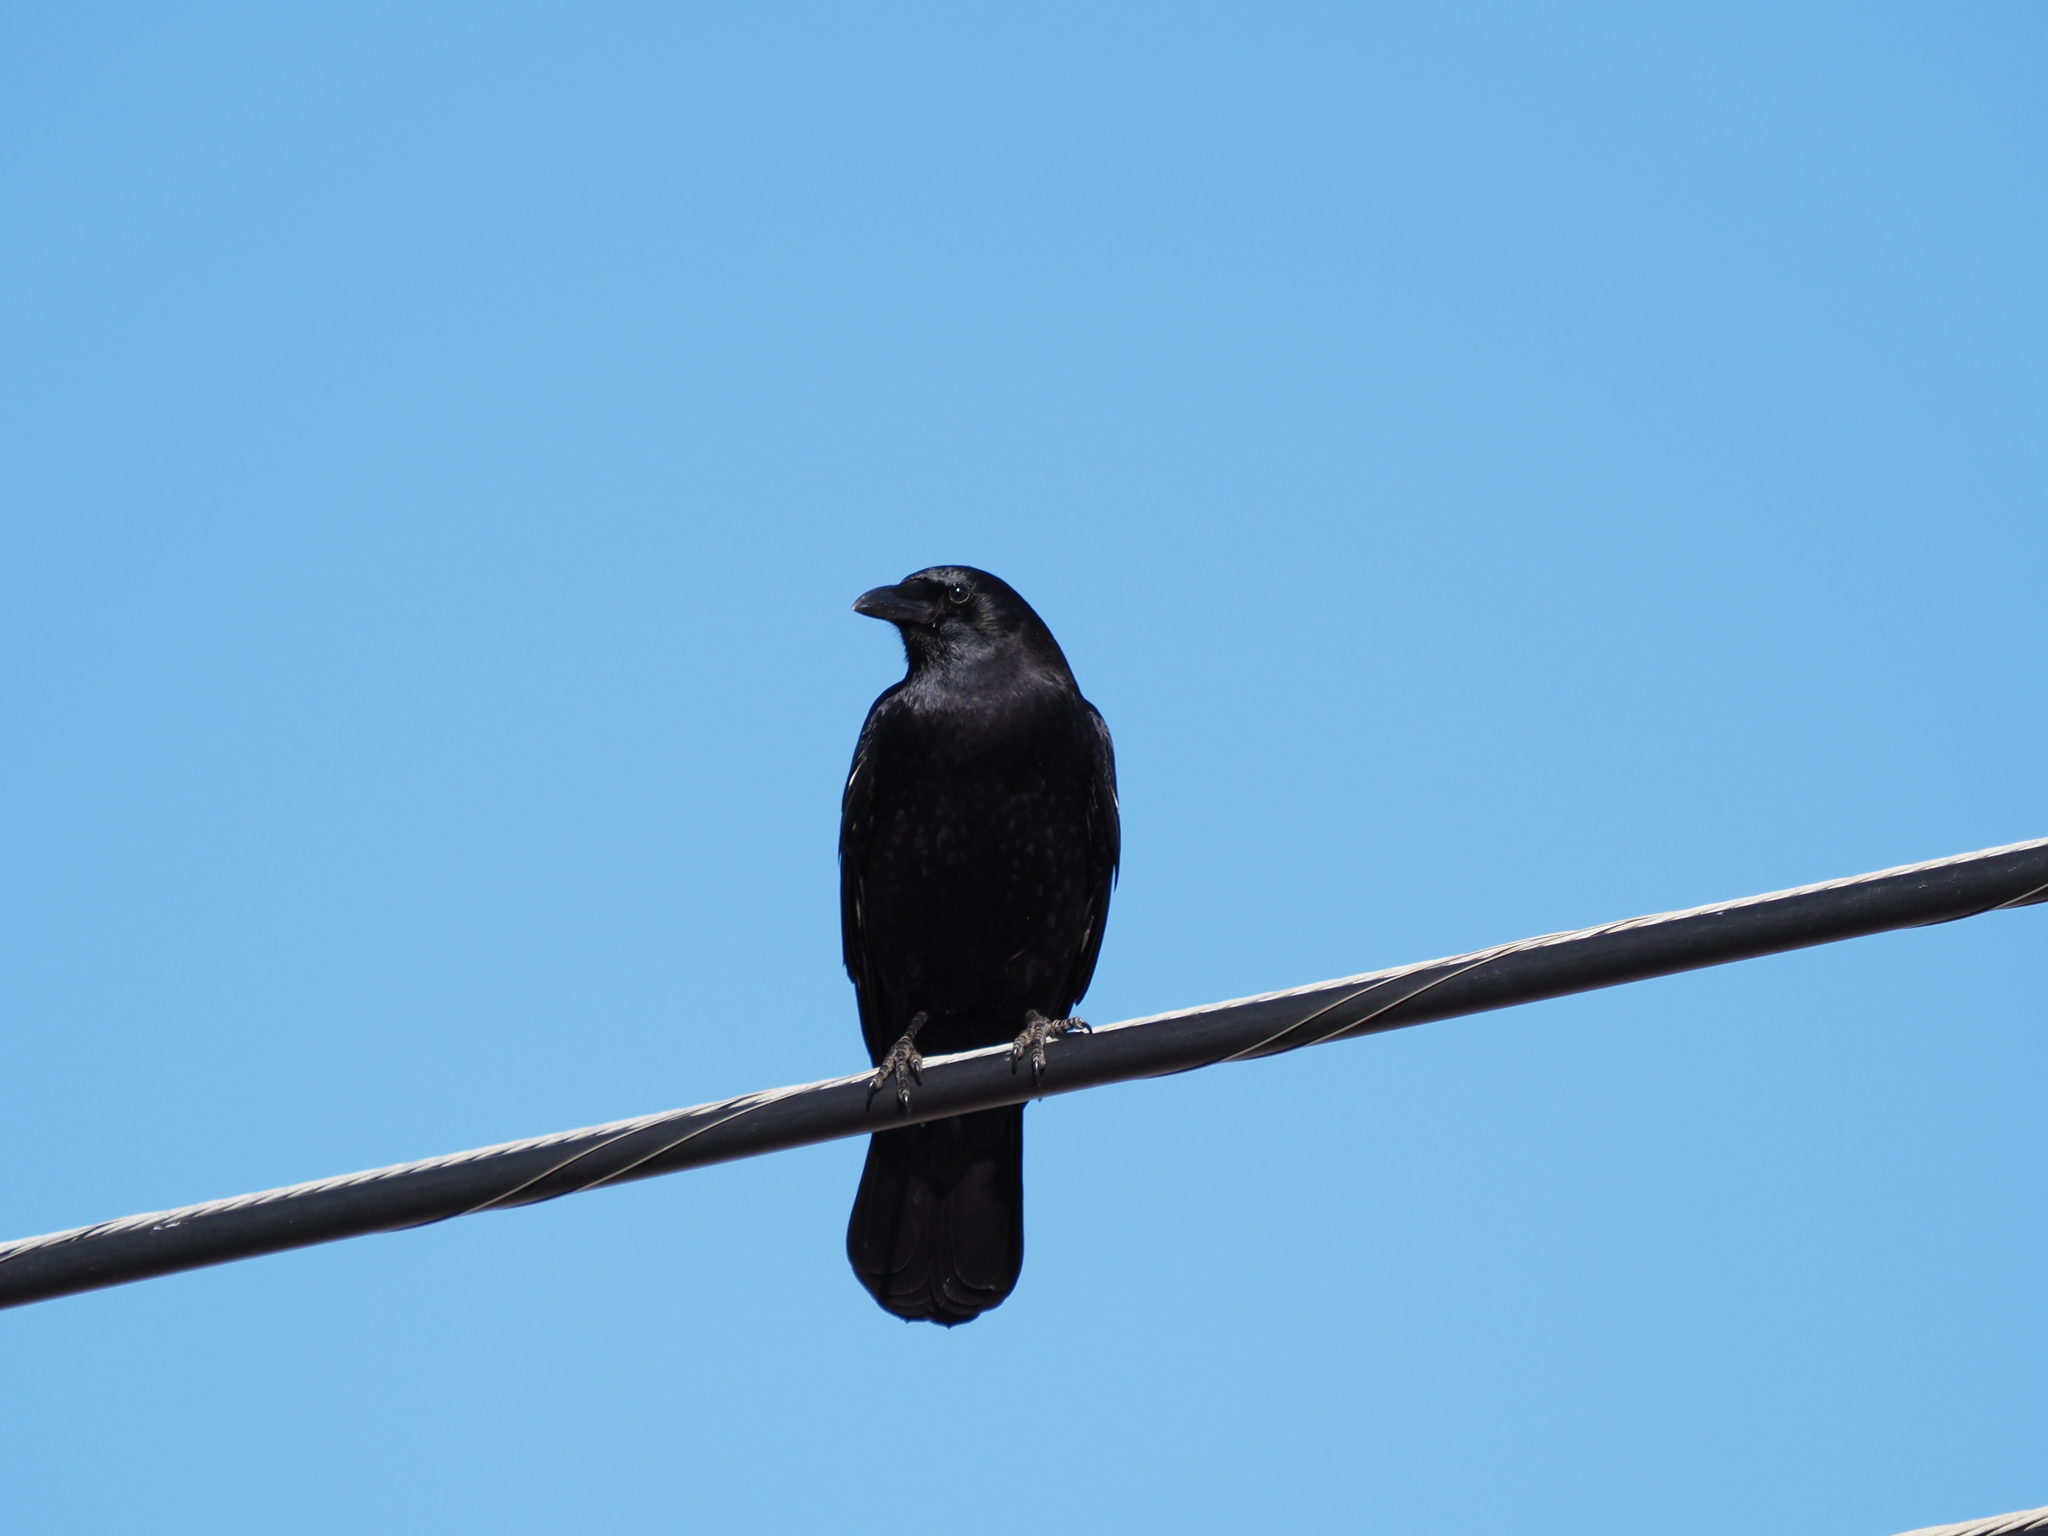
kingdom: Animalia
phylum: Chordata
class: Aves
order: Passeriformes
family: Corvidae
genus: Corvus
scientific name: Corvus brachyrhynchos
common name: American crow
